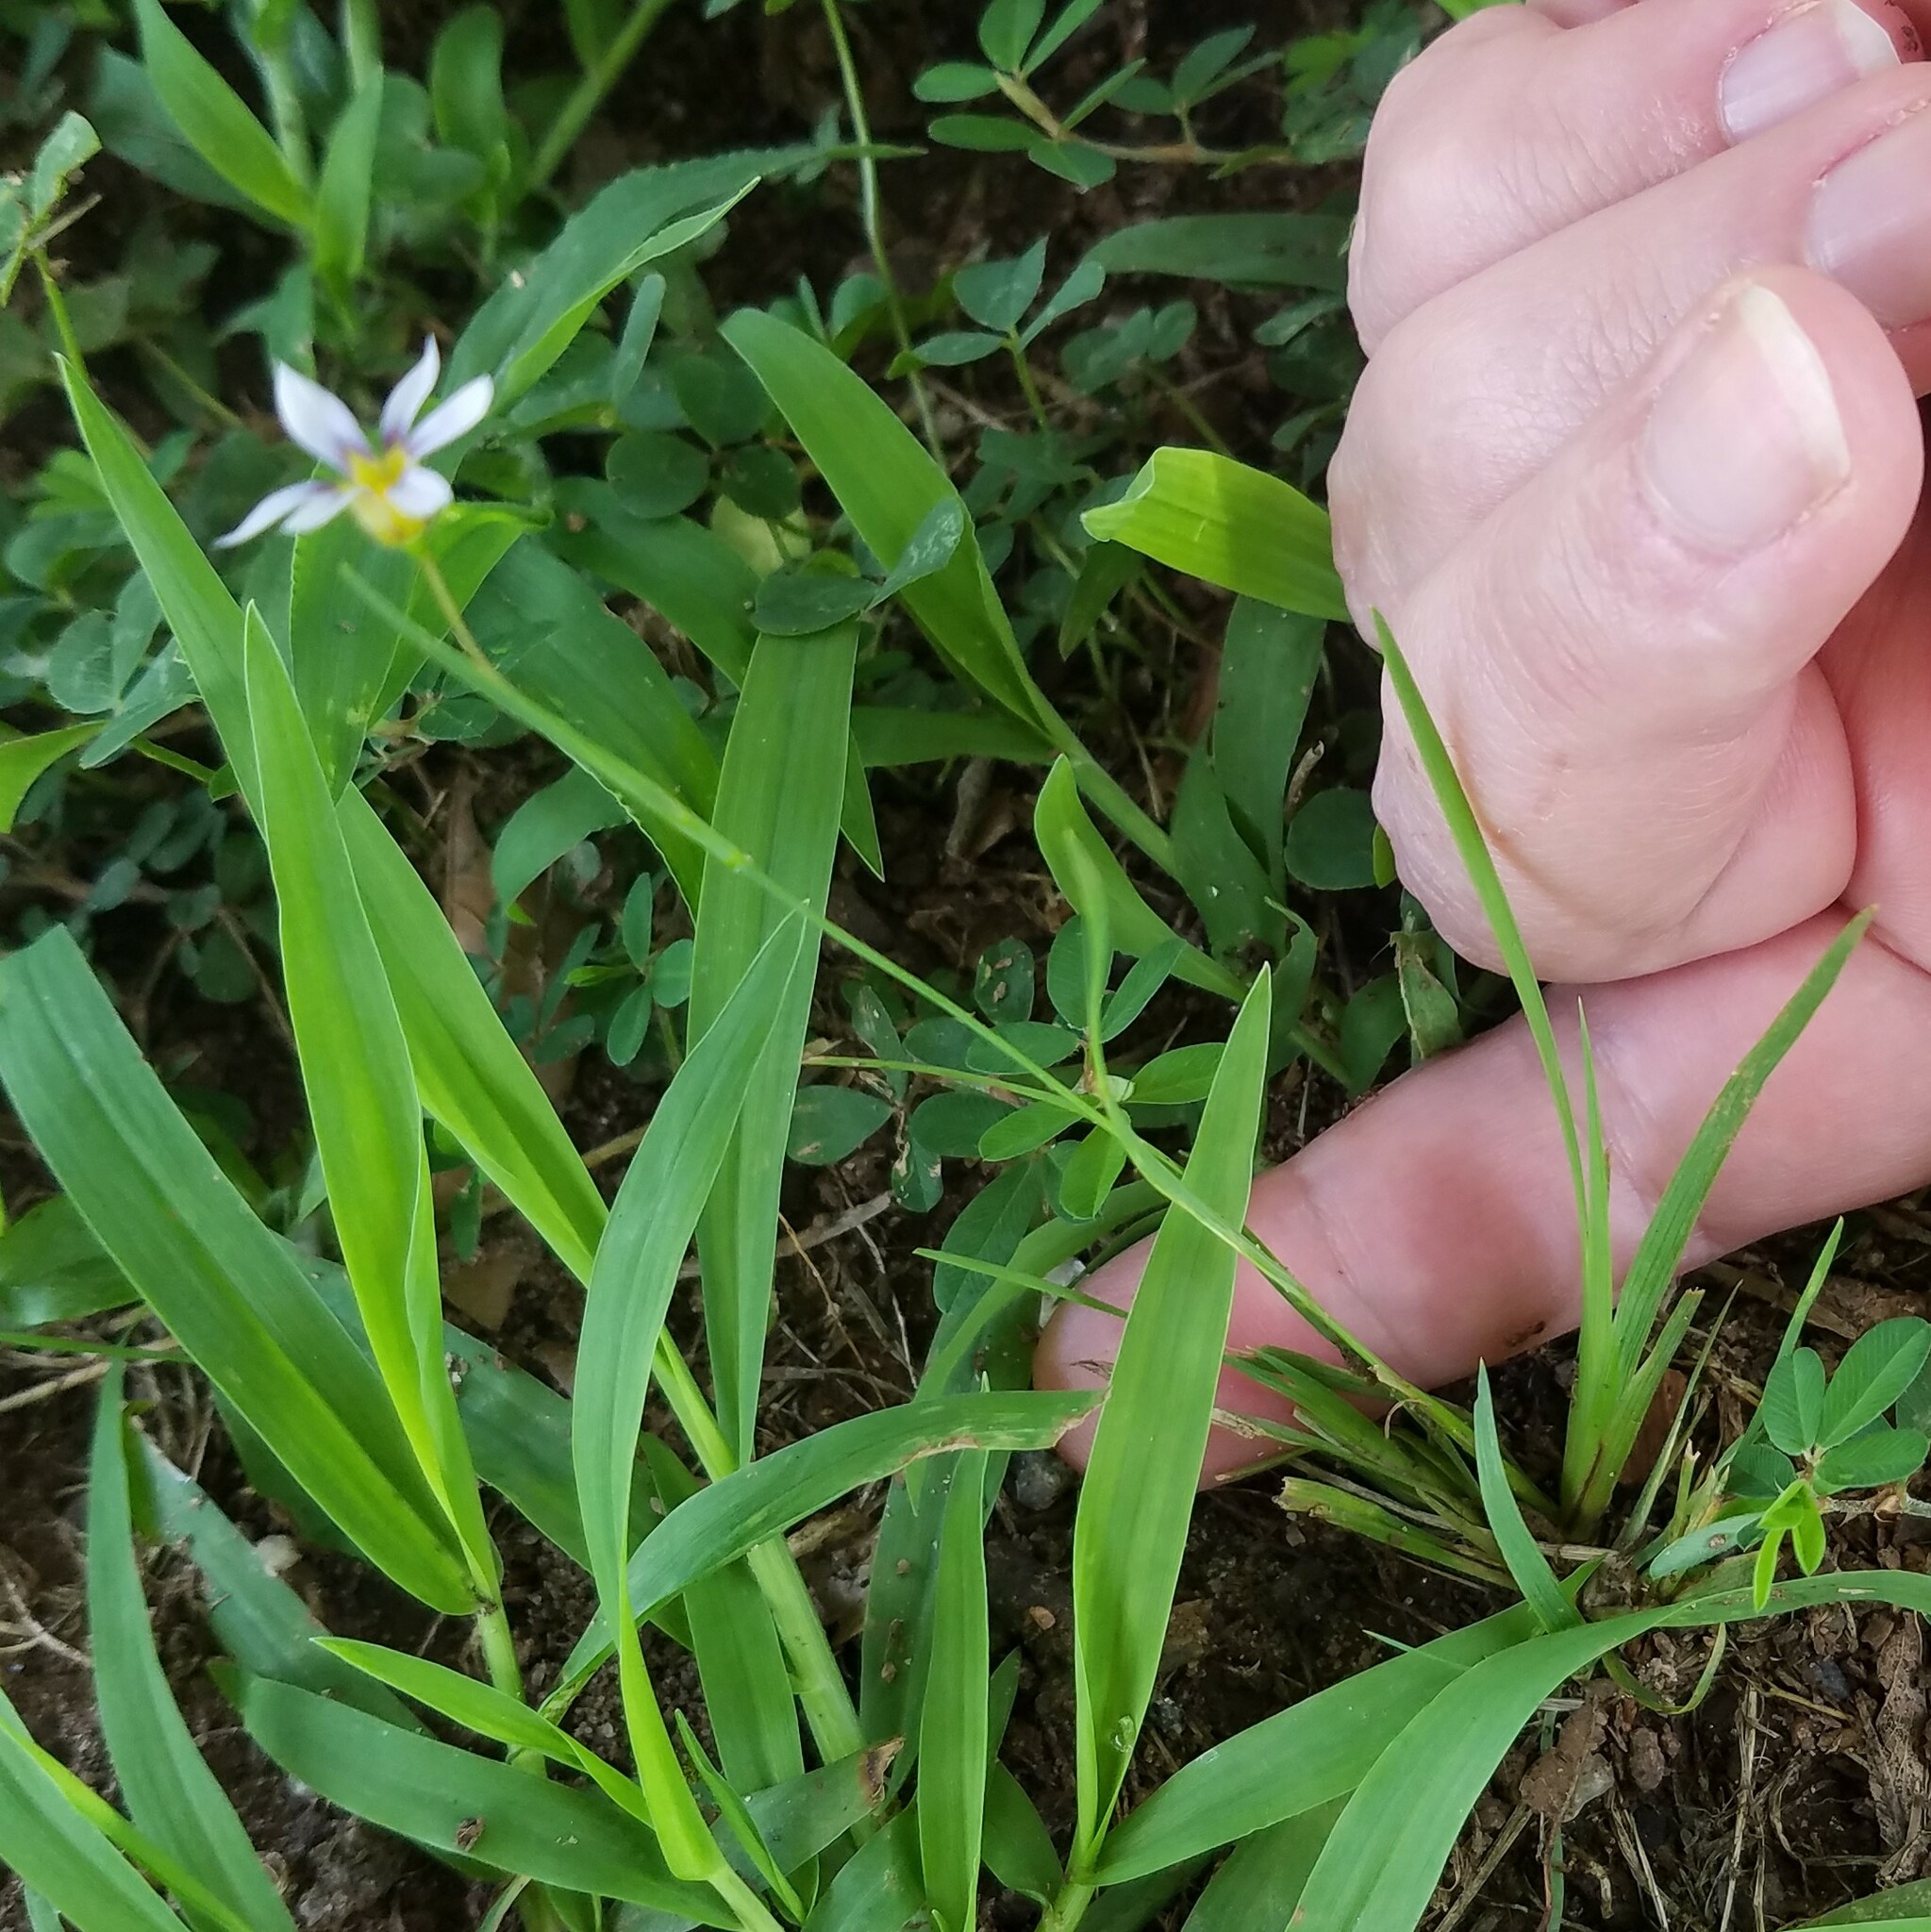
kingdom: Plantae
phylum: Tracheophyta
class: Liliopsida
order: Asparagales
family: Iridaceae
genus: Sisyrinchium
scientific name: Sisyrinchium micranthum
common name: Bermuda pigroot
